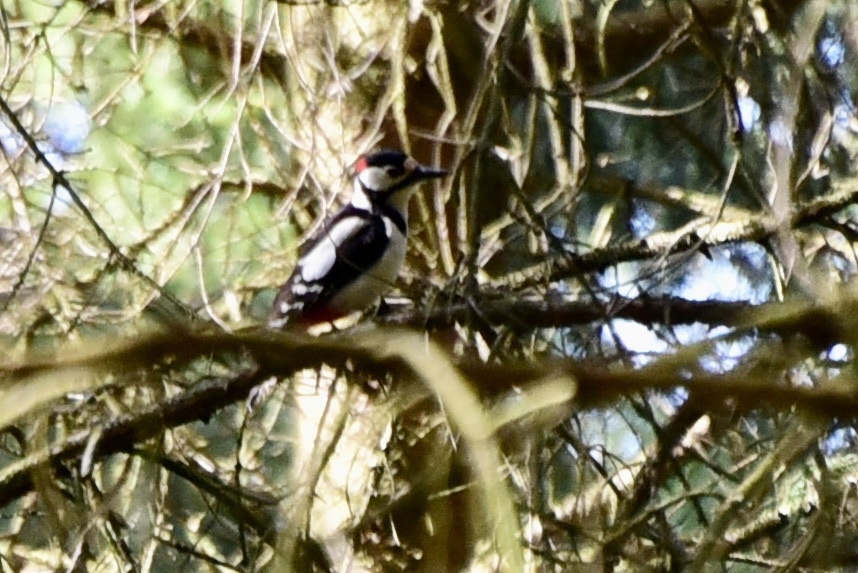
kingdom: Animalia
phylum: Chordata
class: Aves
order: Piciformes
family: Picidae
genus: Dendrocopos
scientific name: Dendrocopos major
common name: Great spotted woodpecker
